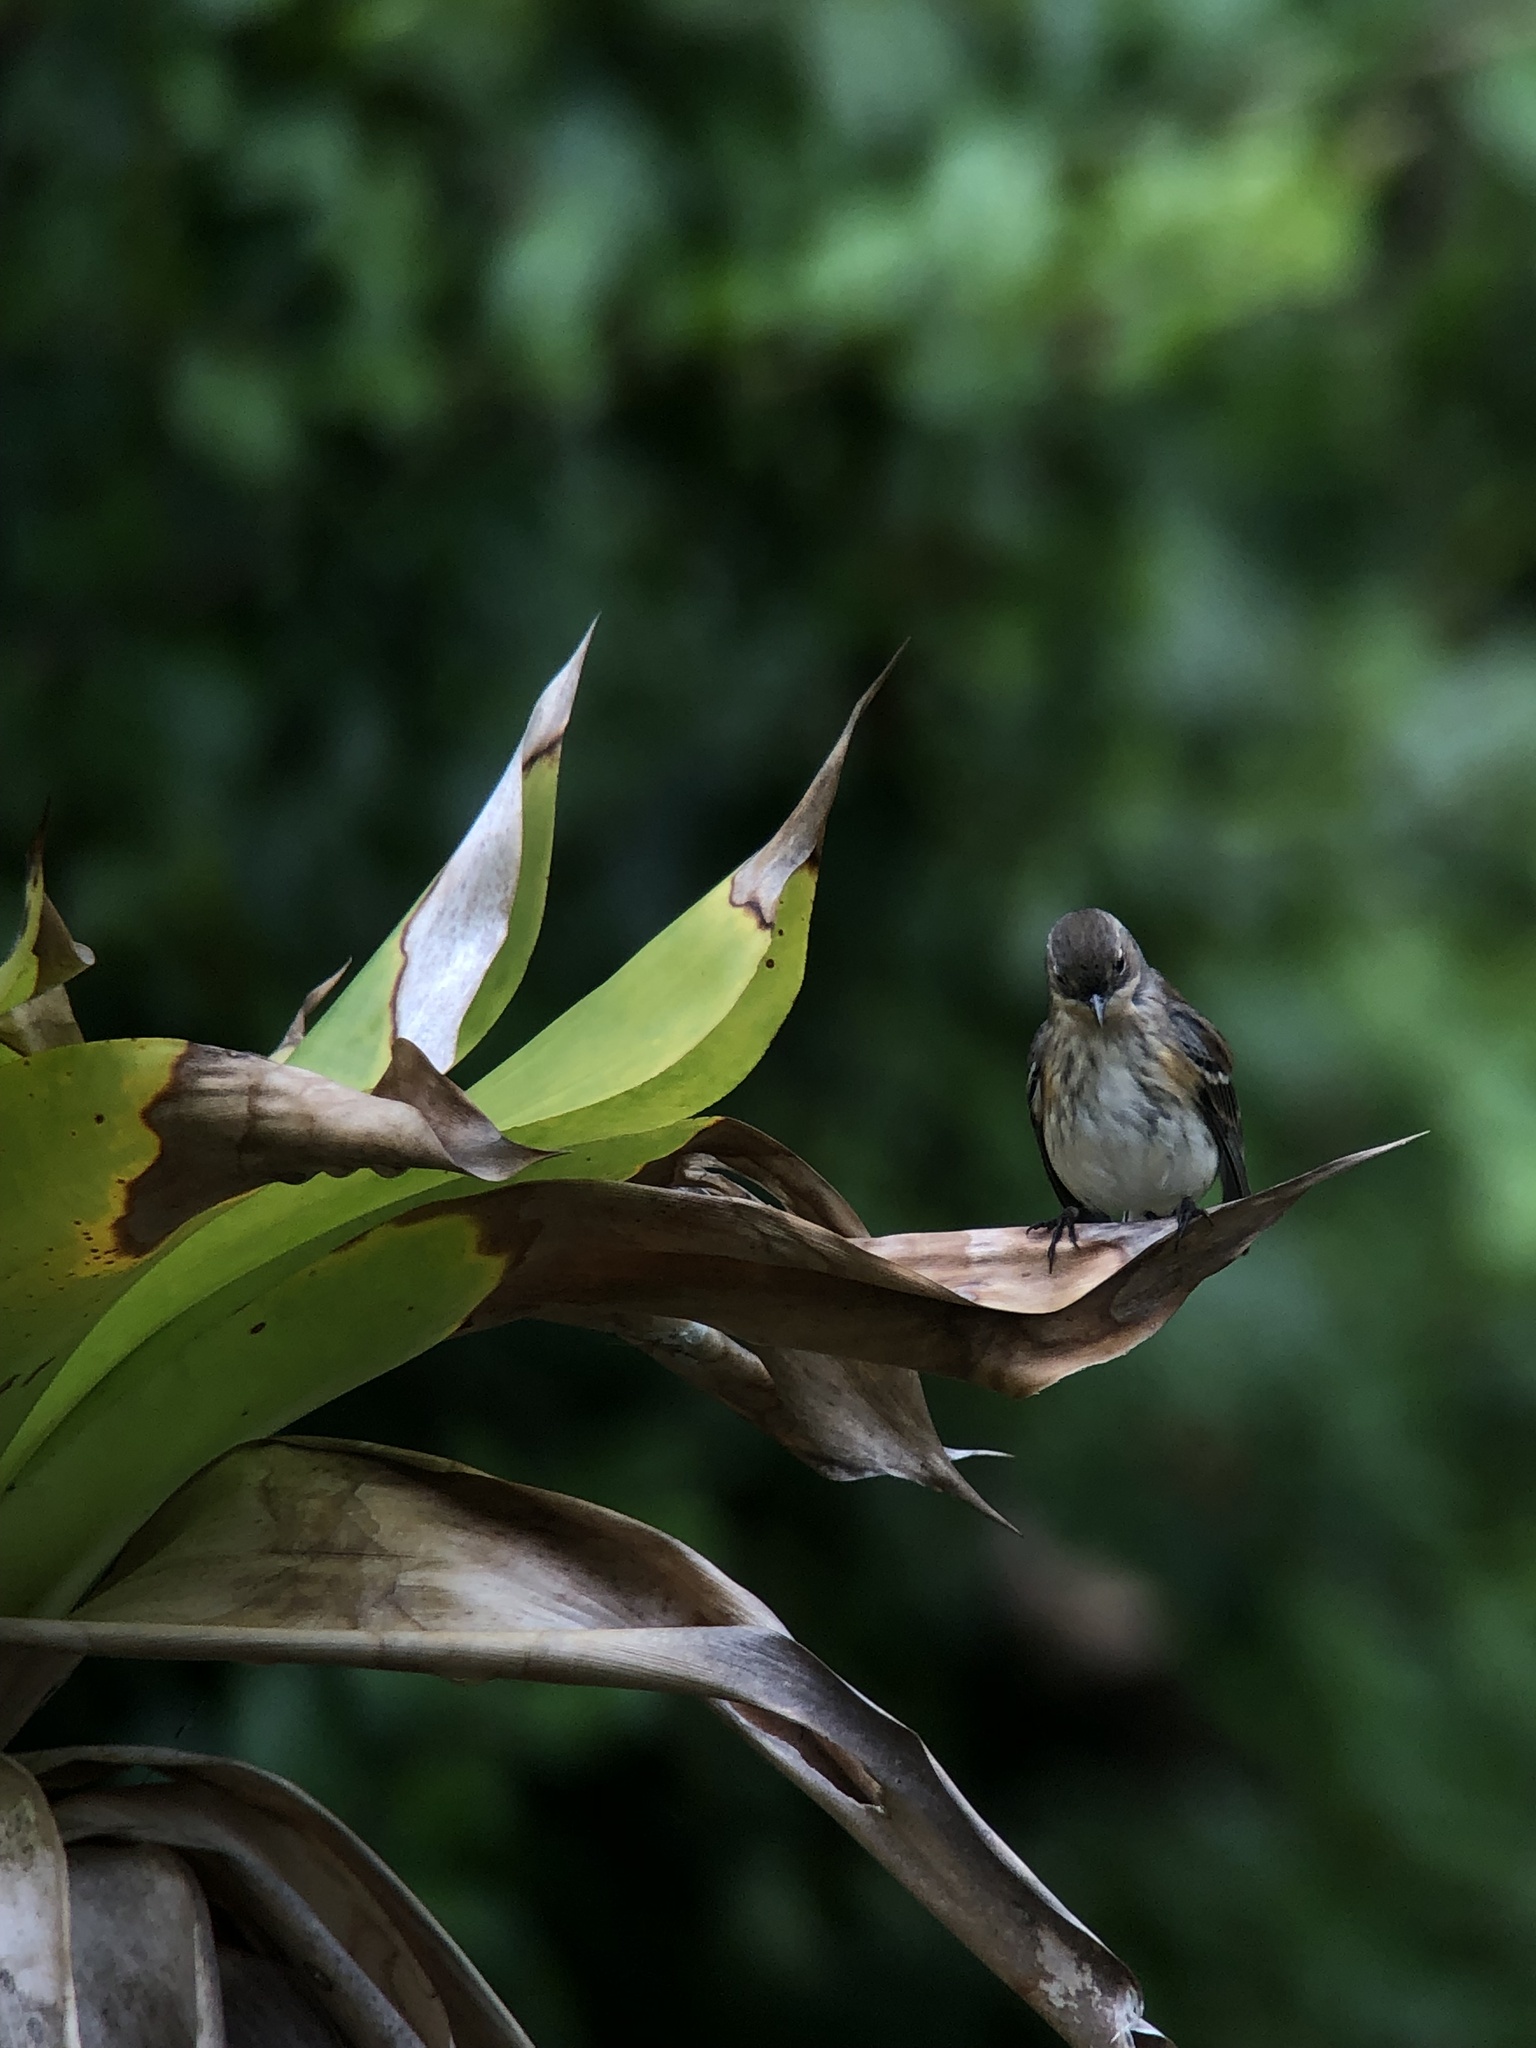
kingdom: Animalia
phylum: Chordata
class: Aves
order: Passeriformes
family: Parulidae
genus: Setophaga
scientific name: Setophaga coronata
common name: Myrtle warbler
